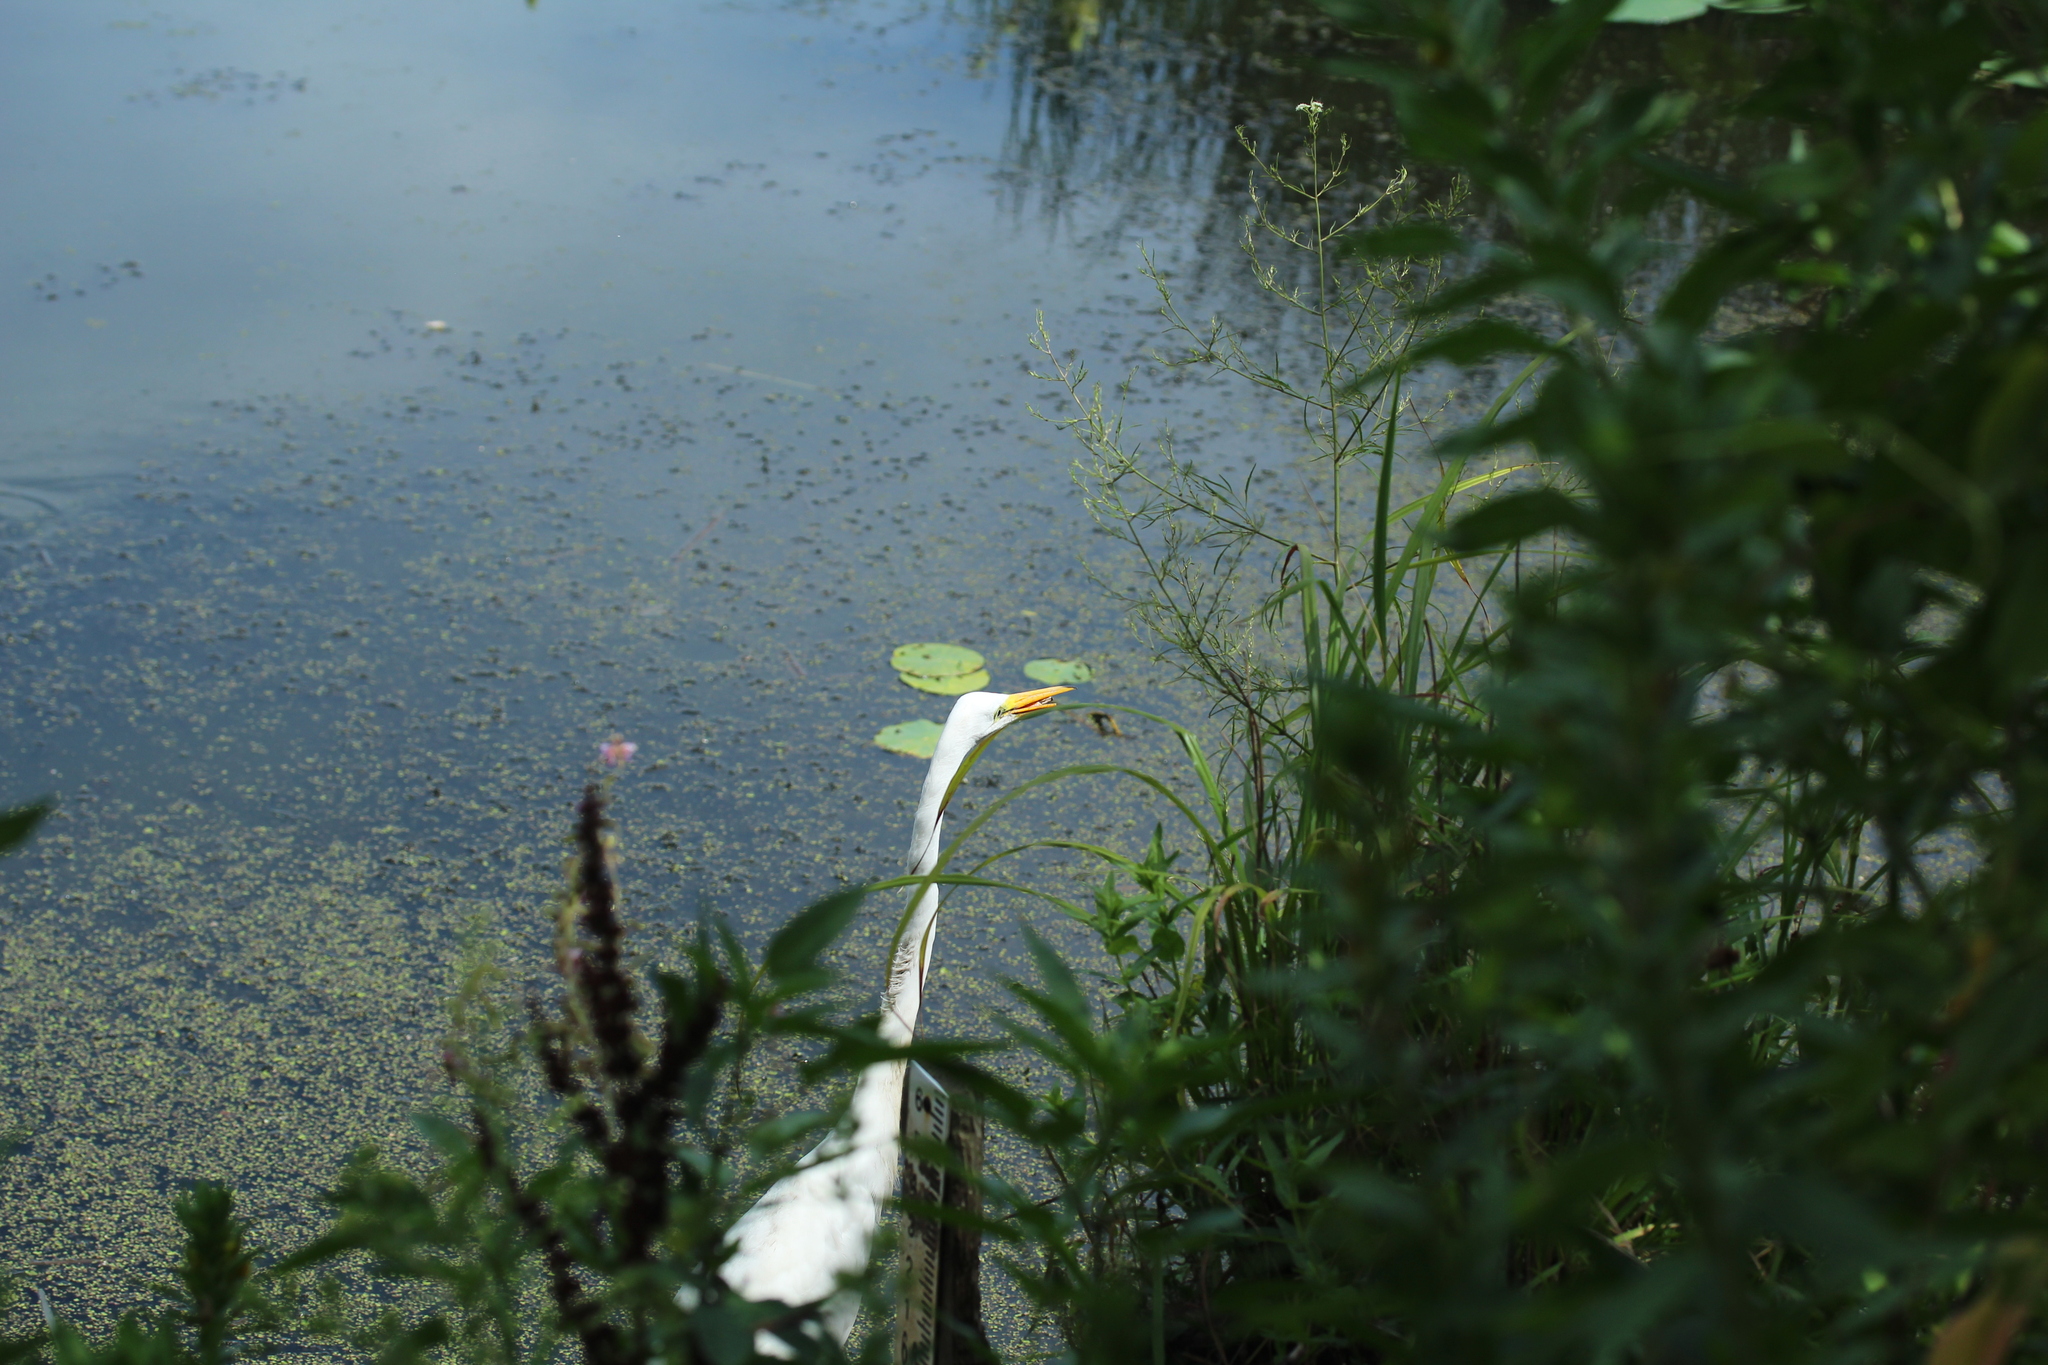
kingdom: Animalia
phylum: Chordata
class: Aves
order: Pelecaniformes
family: Ardeidae
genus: Ardea
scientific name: Ardea alba
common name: Great egret
